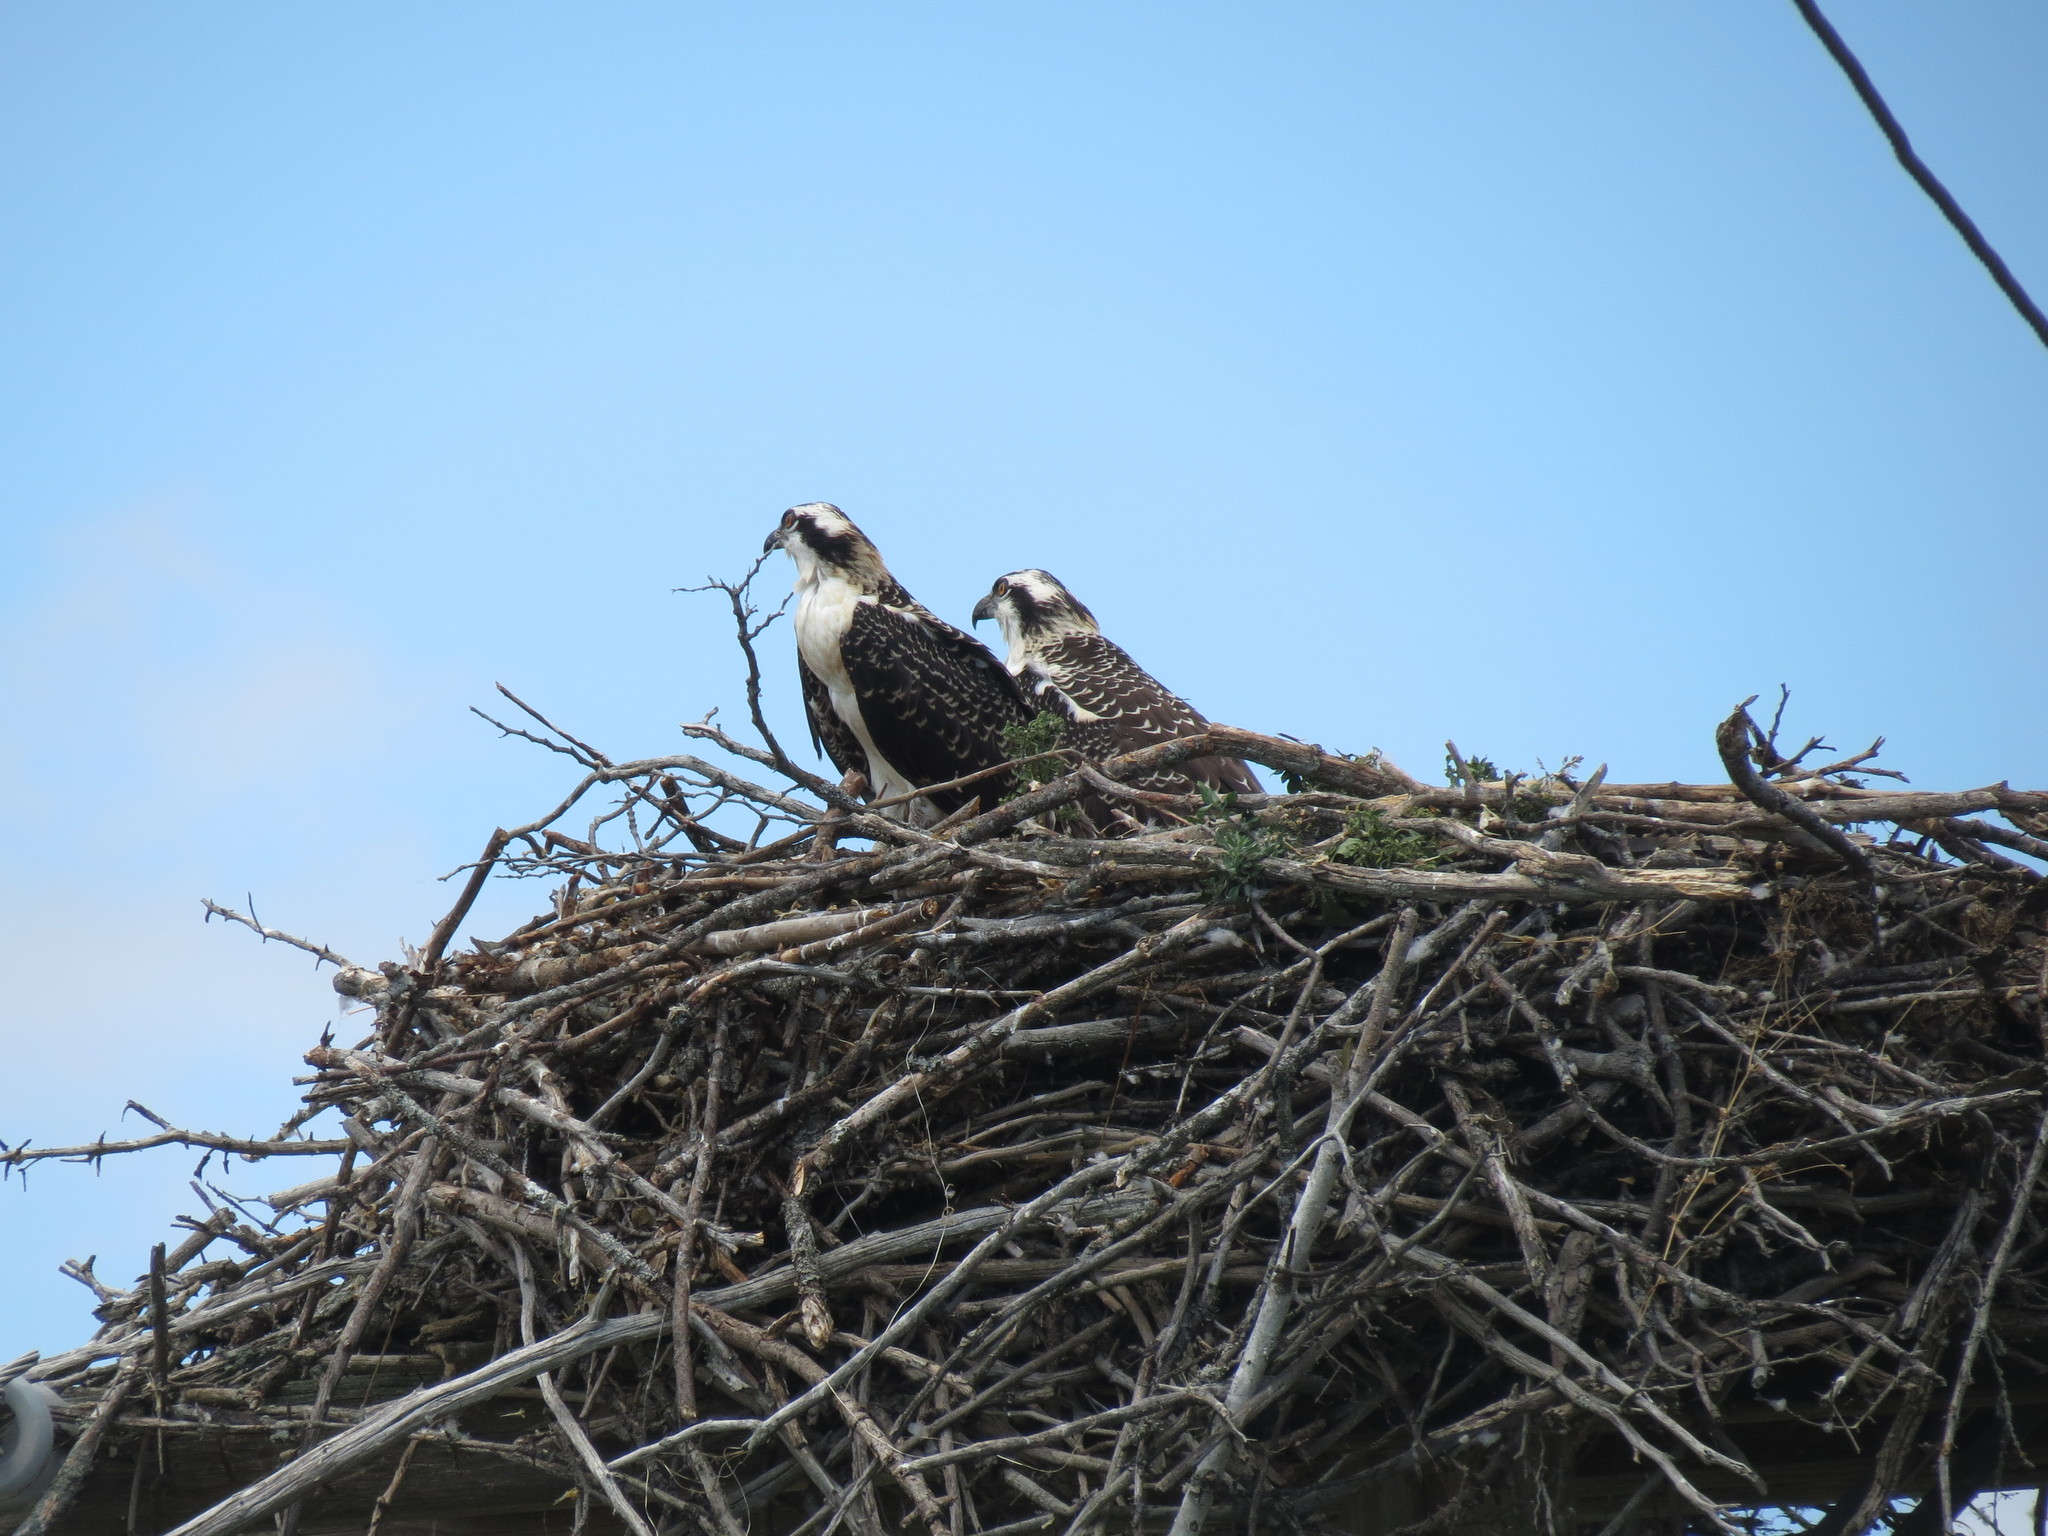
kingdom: Animalia
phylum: Chordata
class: Aves
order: Accipitriformes
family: Pandionidae
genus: Pandion
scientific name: Pandion haliaetus
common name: Osprey
